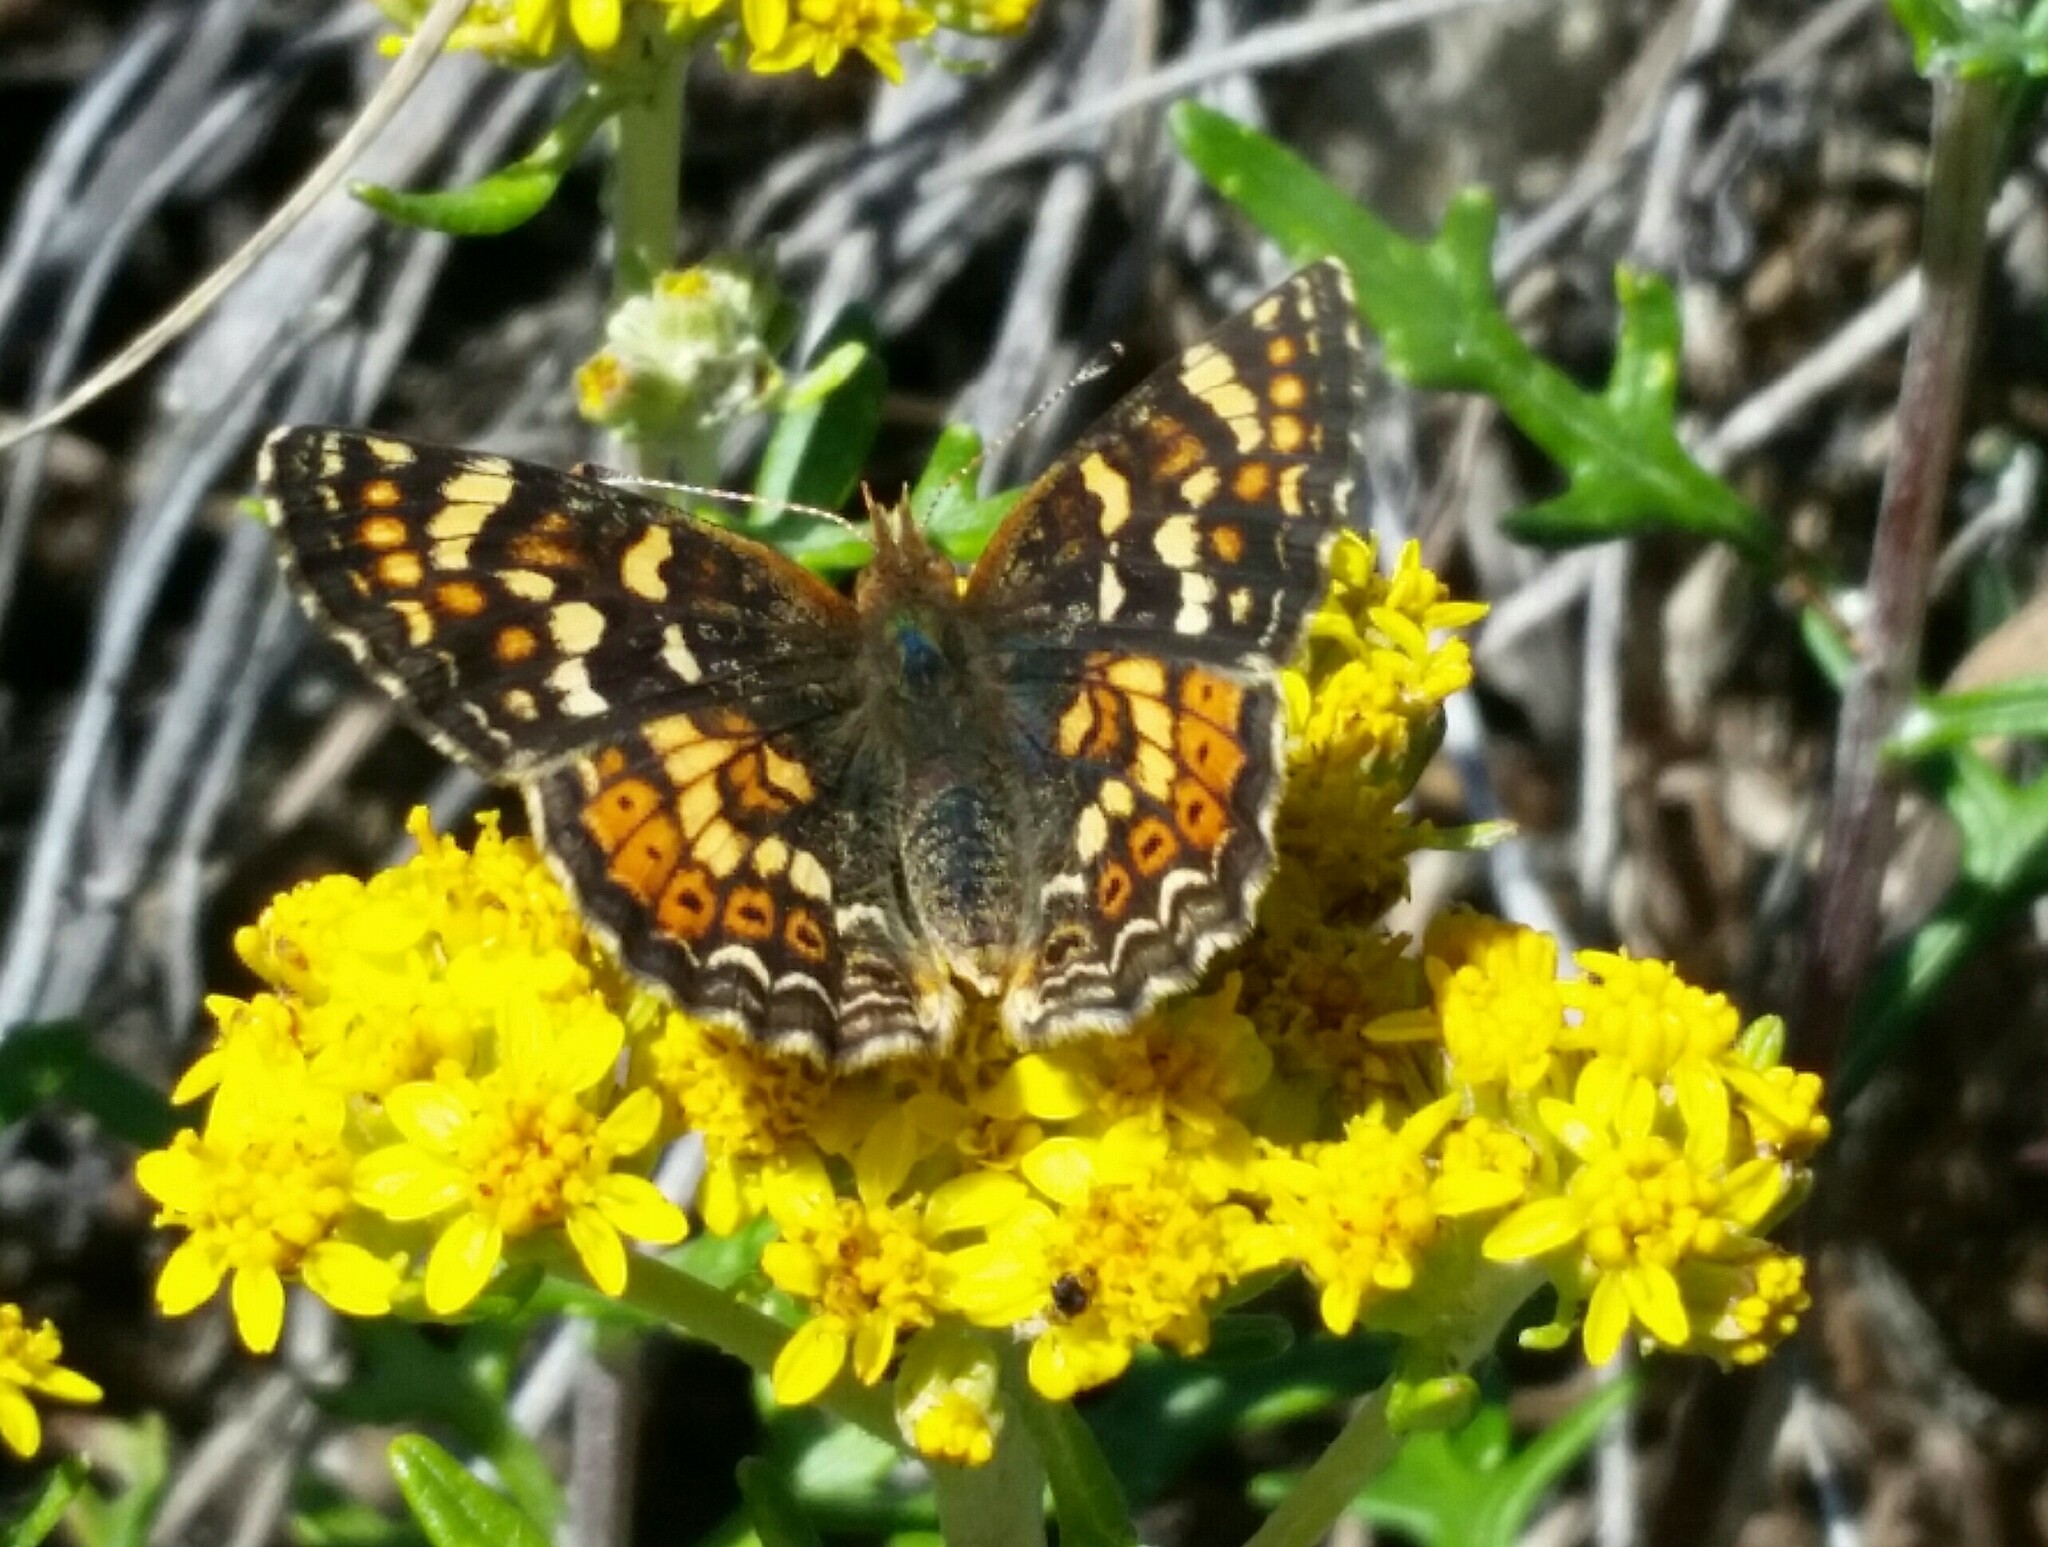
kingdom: Animalia
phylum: Arthropoda
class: Insecta
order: Lepidoptera
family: Nymphalidae
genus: Phyciodes
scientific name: Phyciodes tharos
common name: Pearl crescent
